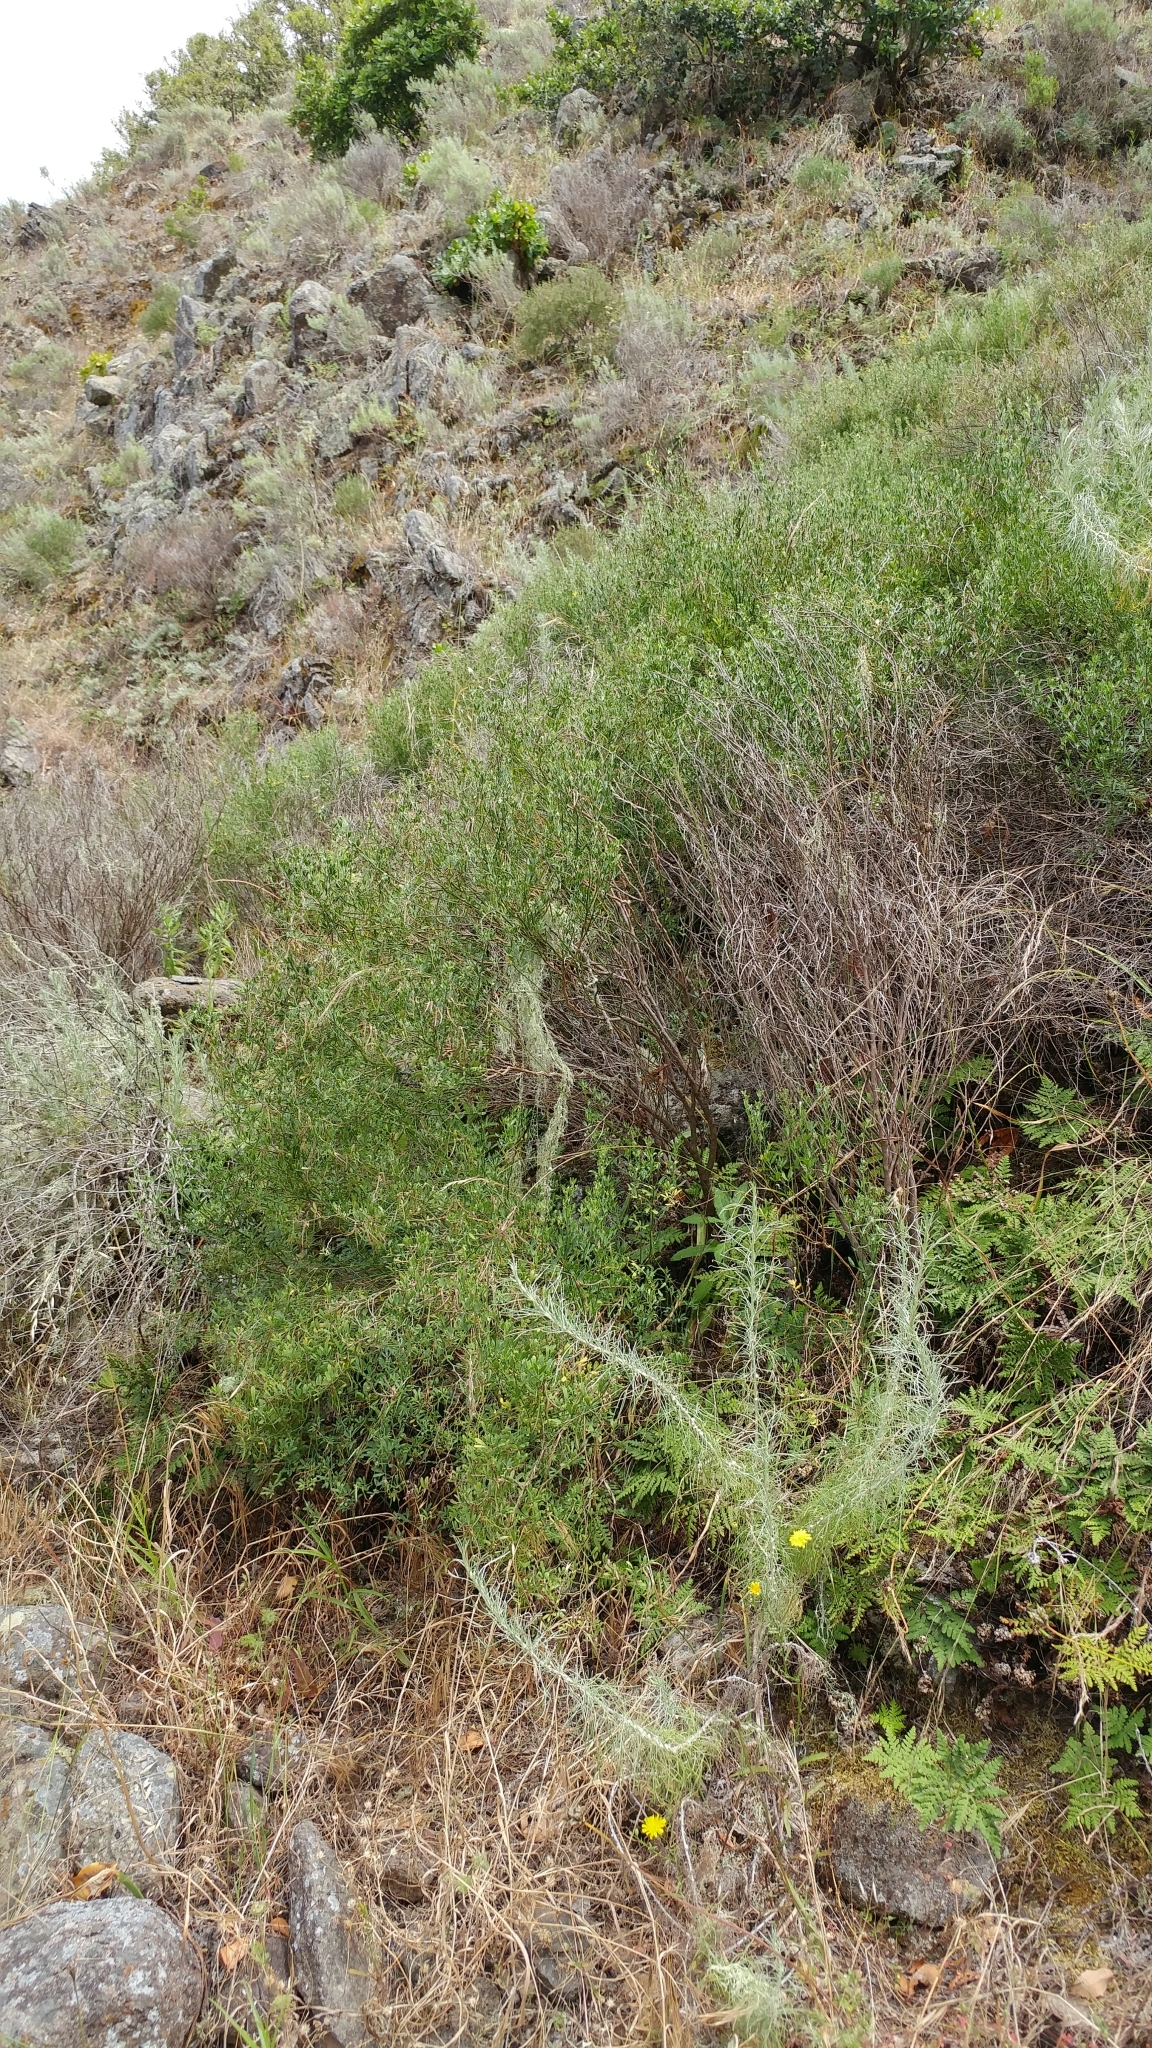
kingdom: Plantae
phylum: Tracheophyta
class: Magnoliopsida
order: Fabales
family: Fabaceae
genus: Acmispon
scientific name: Acmispon dendroideus
